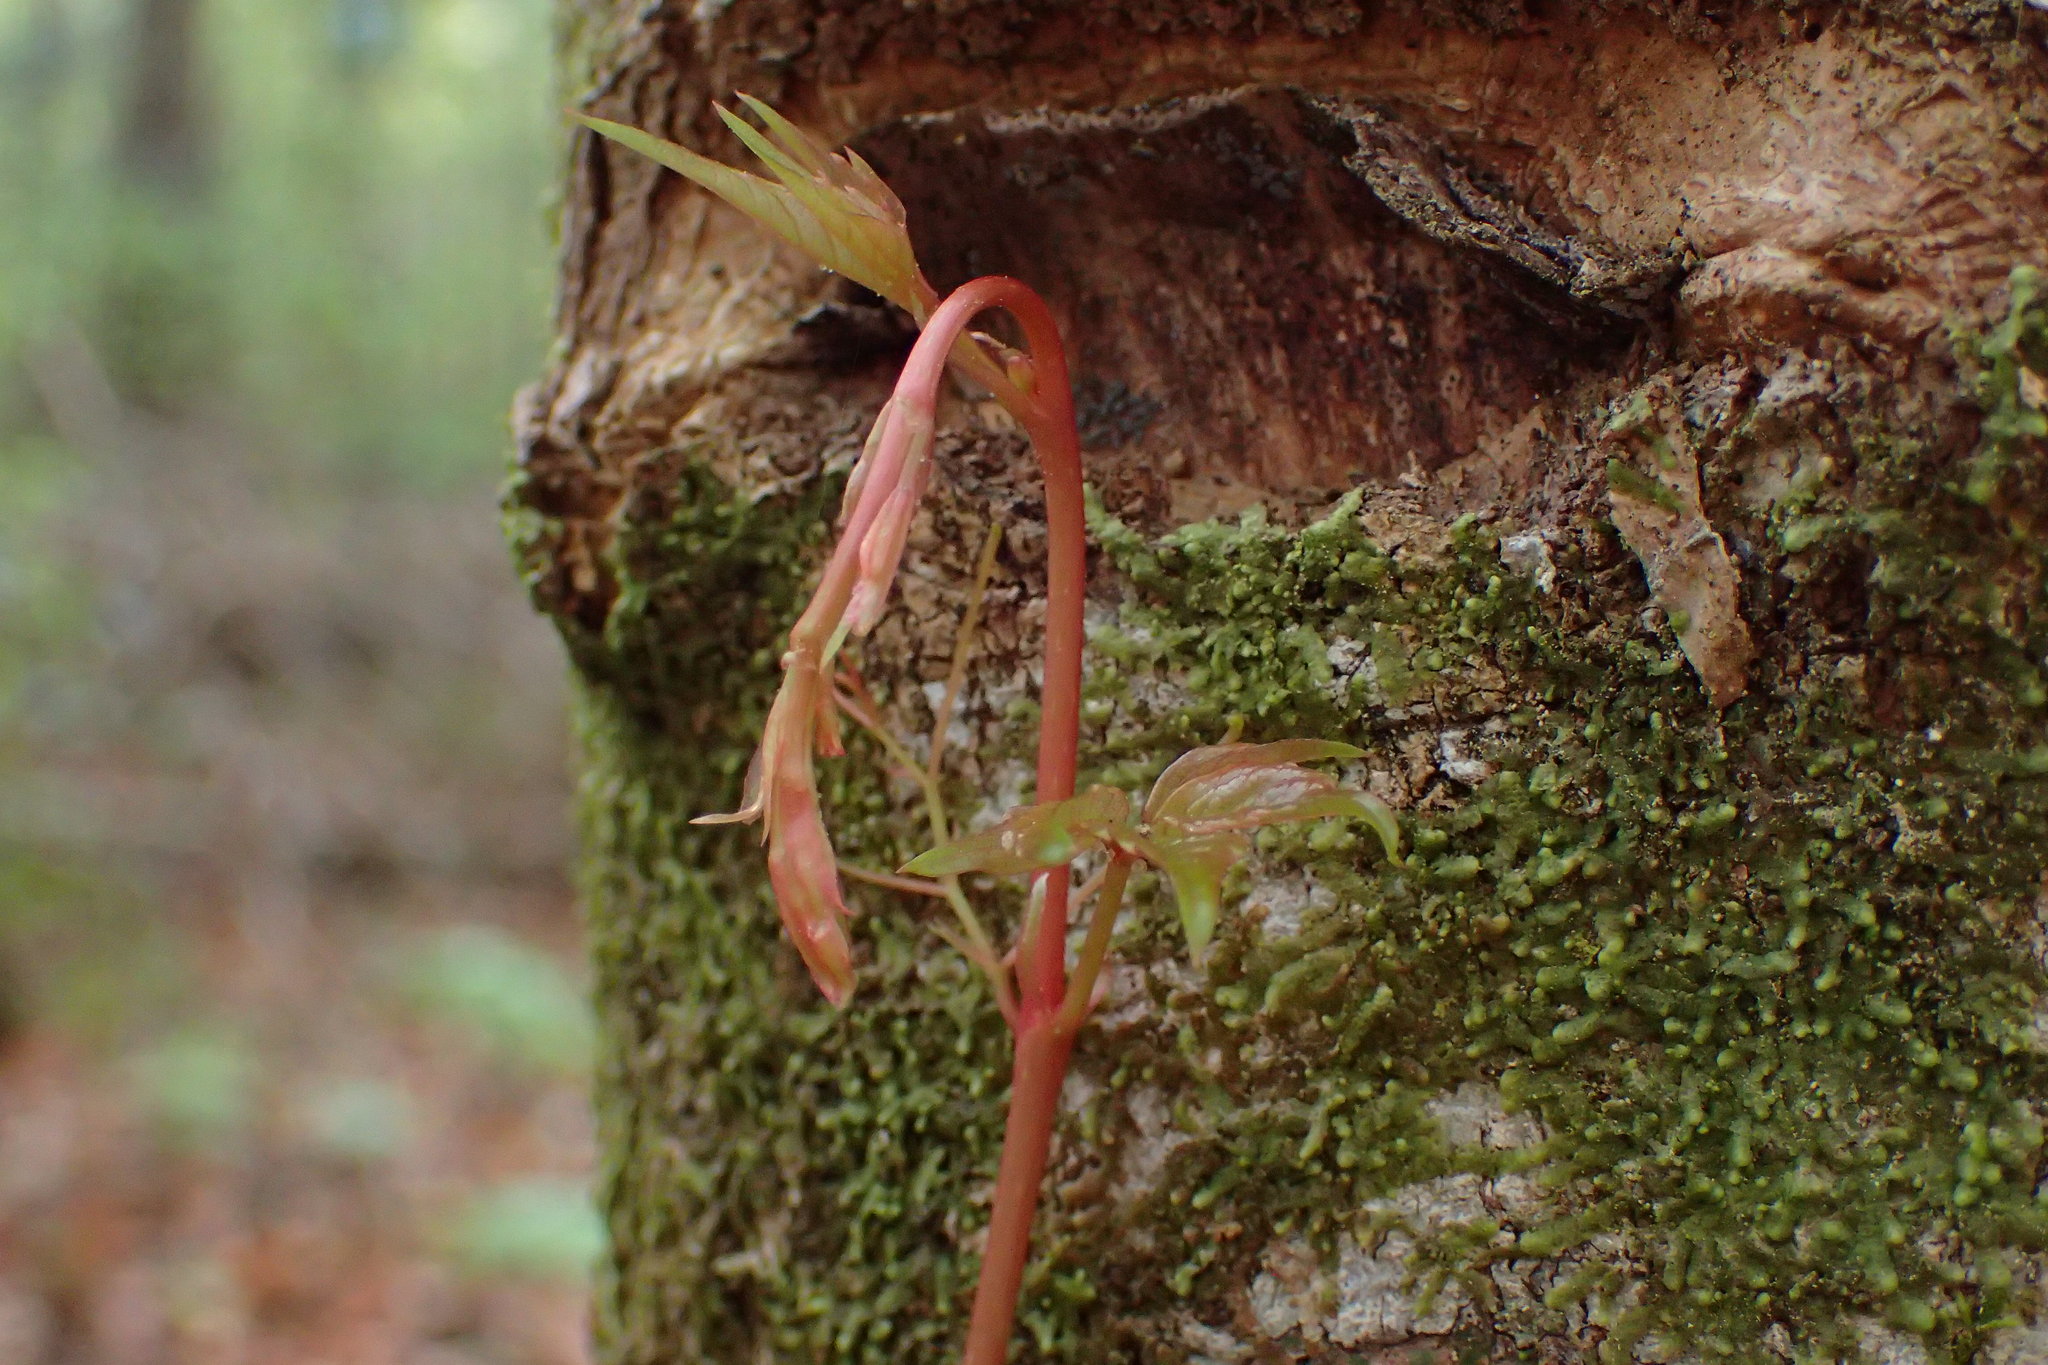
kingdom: Plantae
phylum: Tracheophyta
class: Magnoliopsida
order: Vitales
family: Vitaceae
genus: Parthenocissus
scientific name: Parthenocissus quinquefolia
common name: Virginia-creeper
